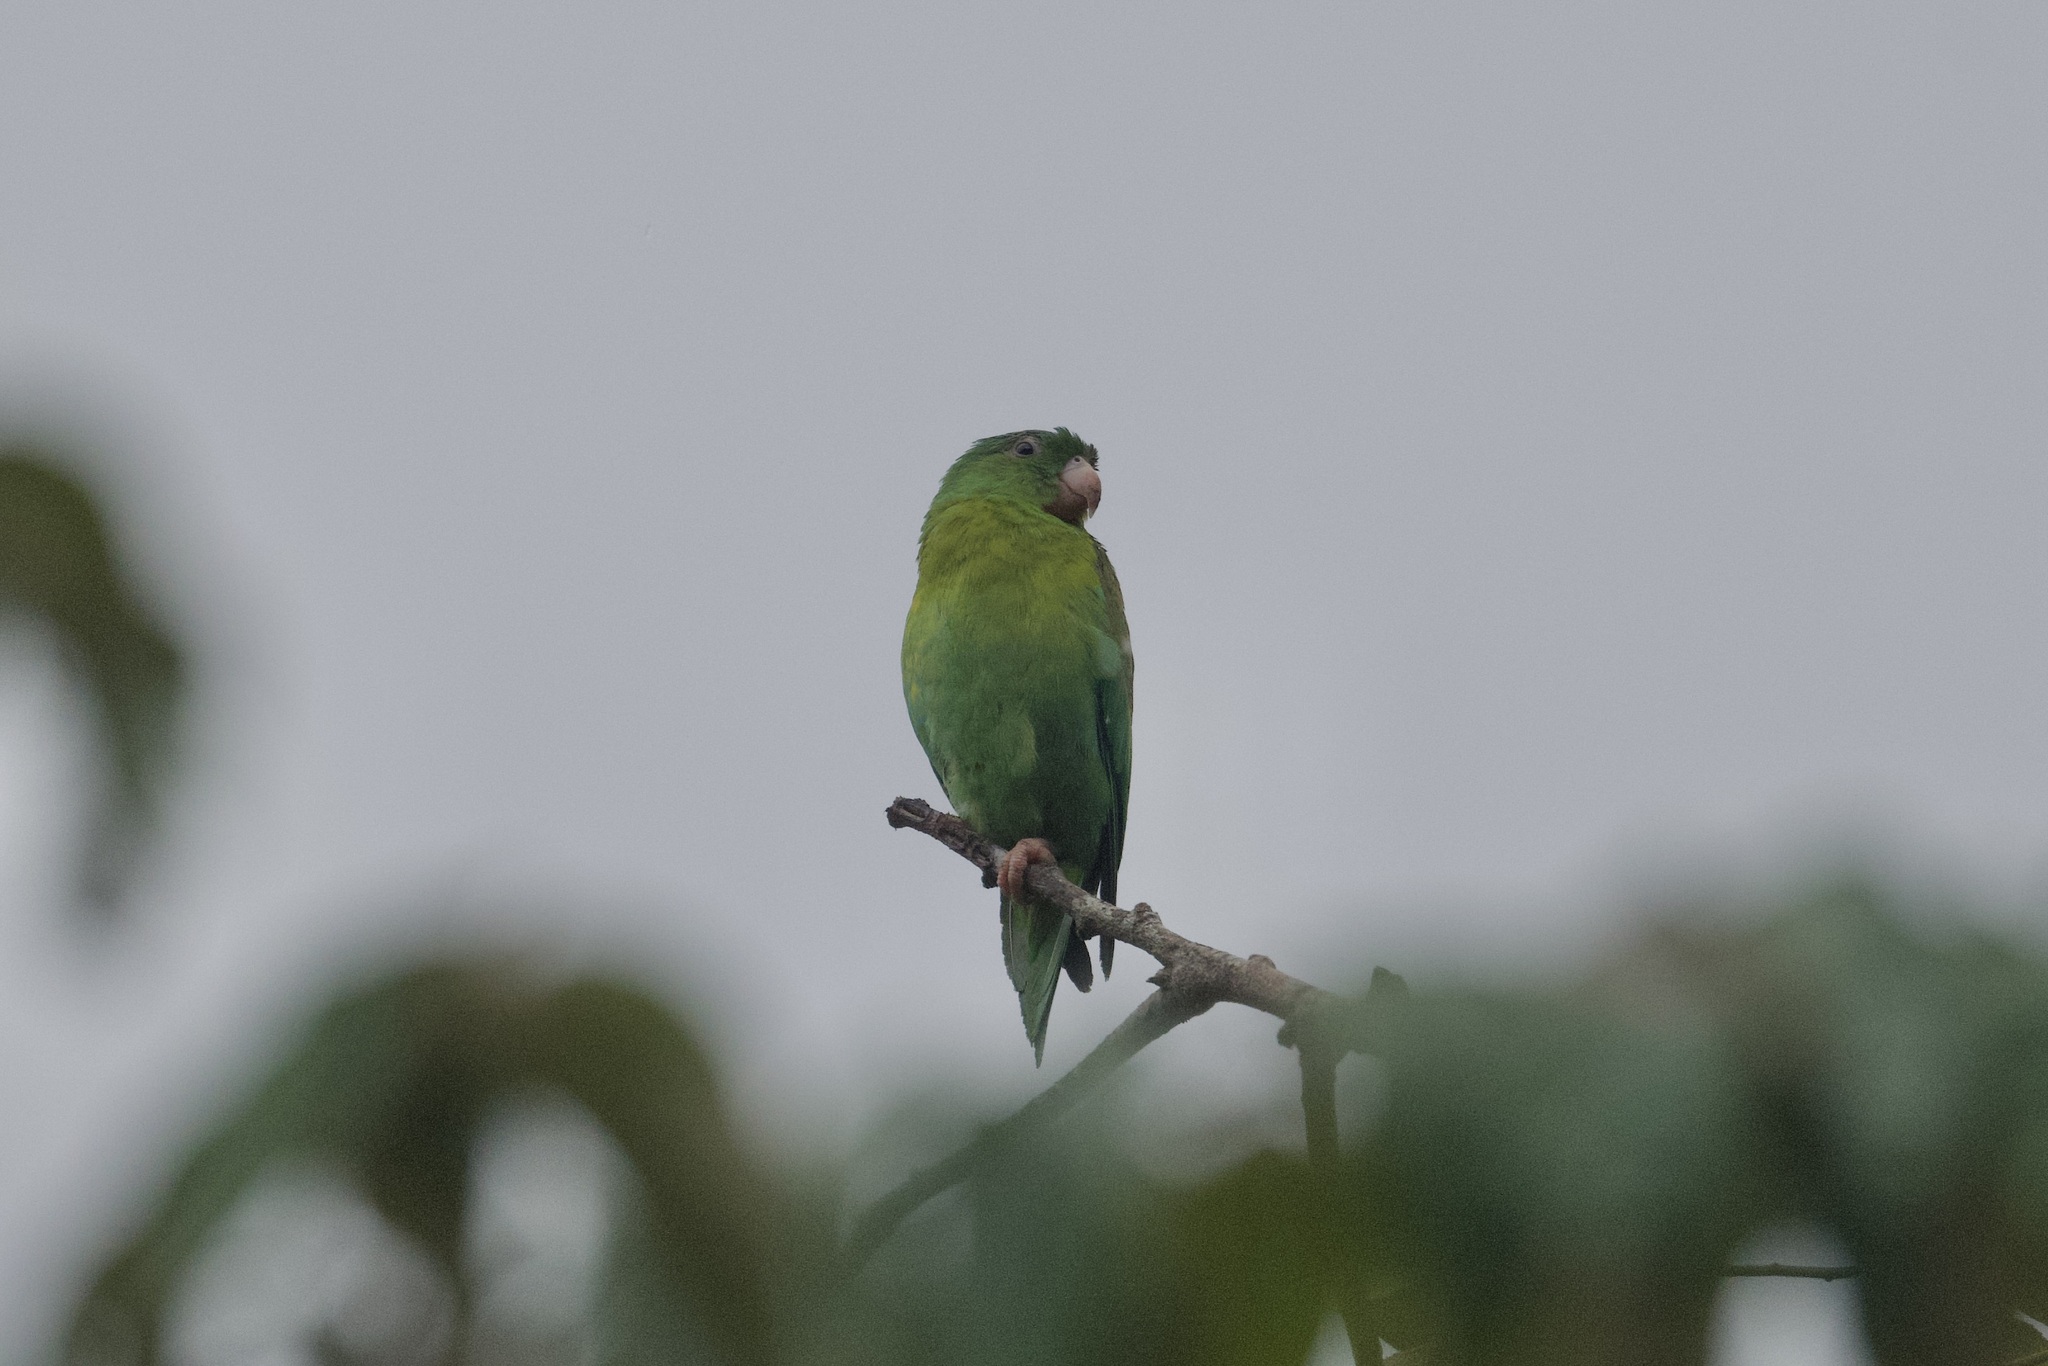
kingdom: Animalia
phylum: Chordata
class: Aves
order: Psittaciformes
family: Psittacidae
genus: Brotogeris
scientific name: Brotogeris jugularis
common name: Orange-chinned parakeet
